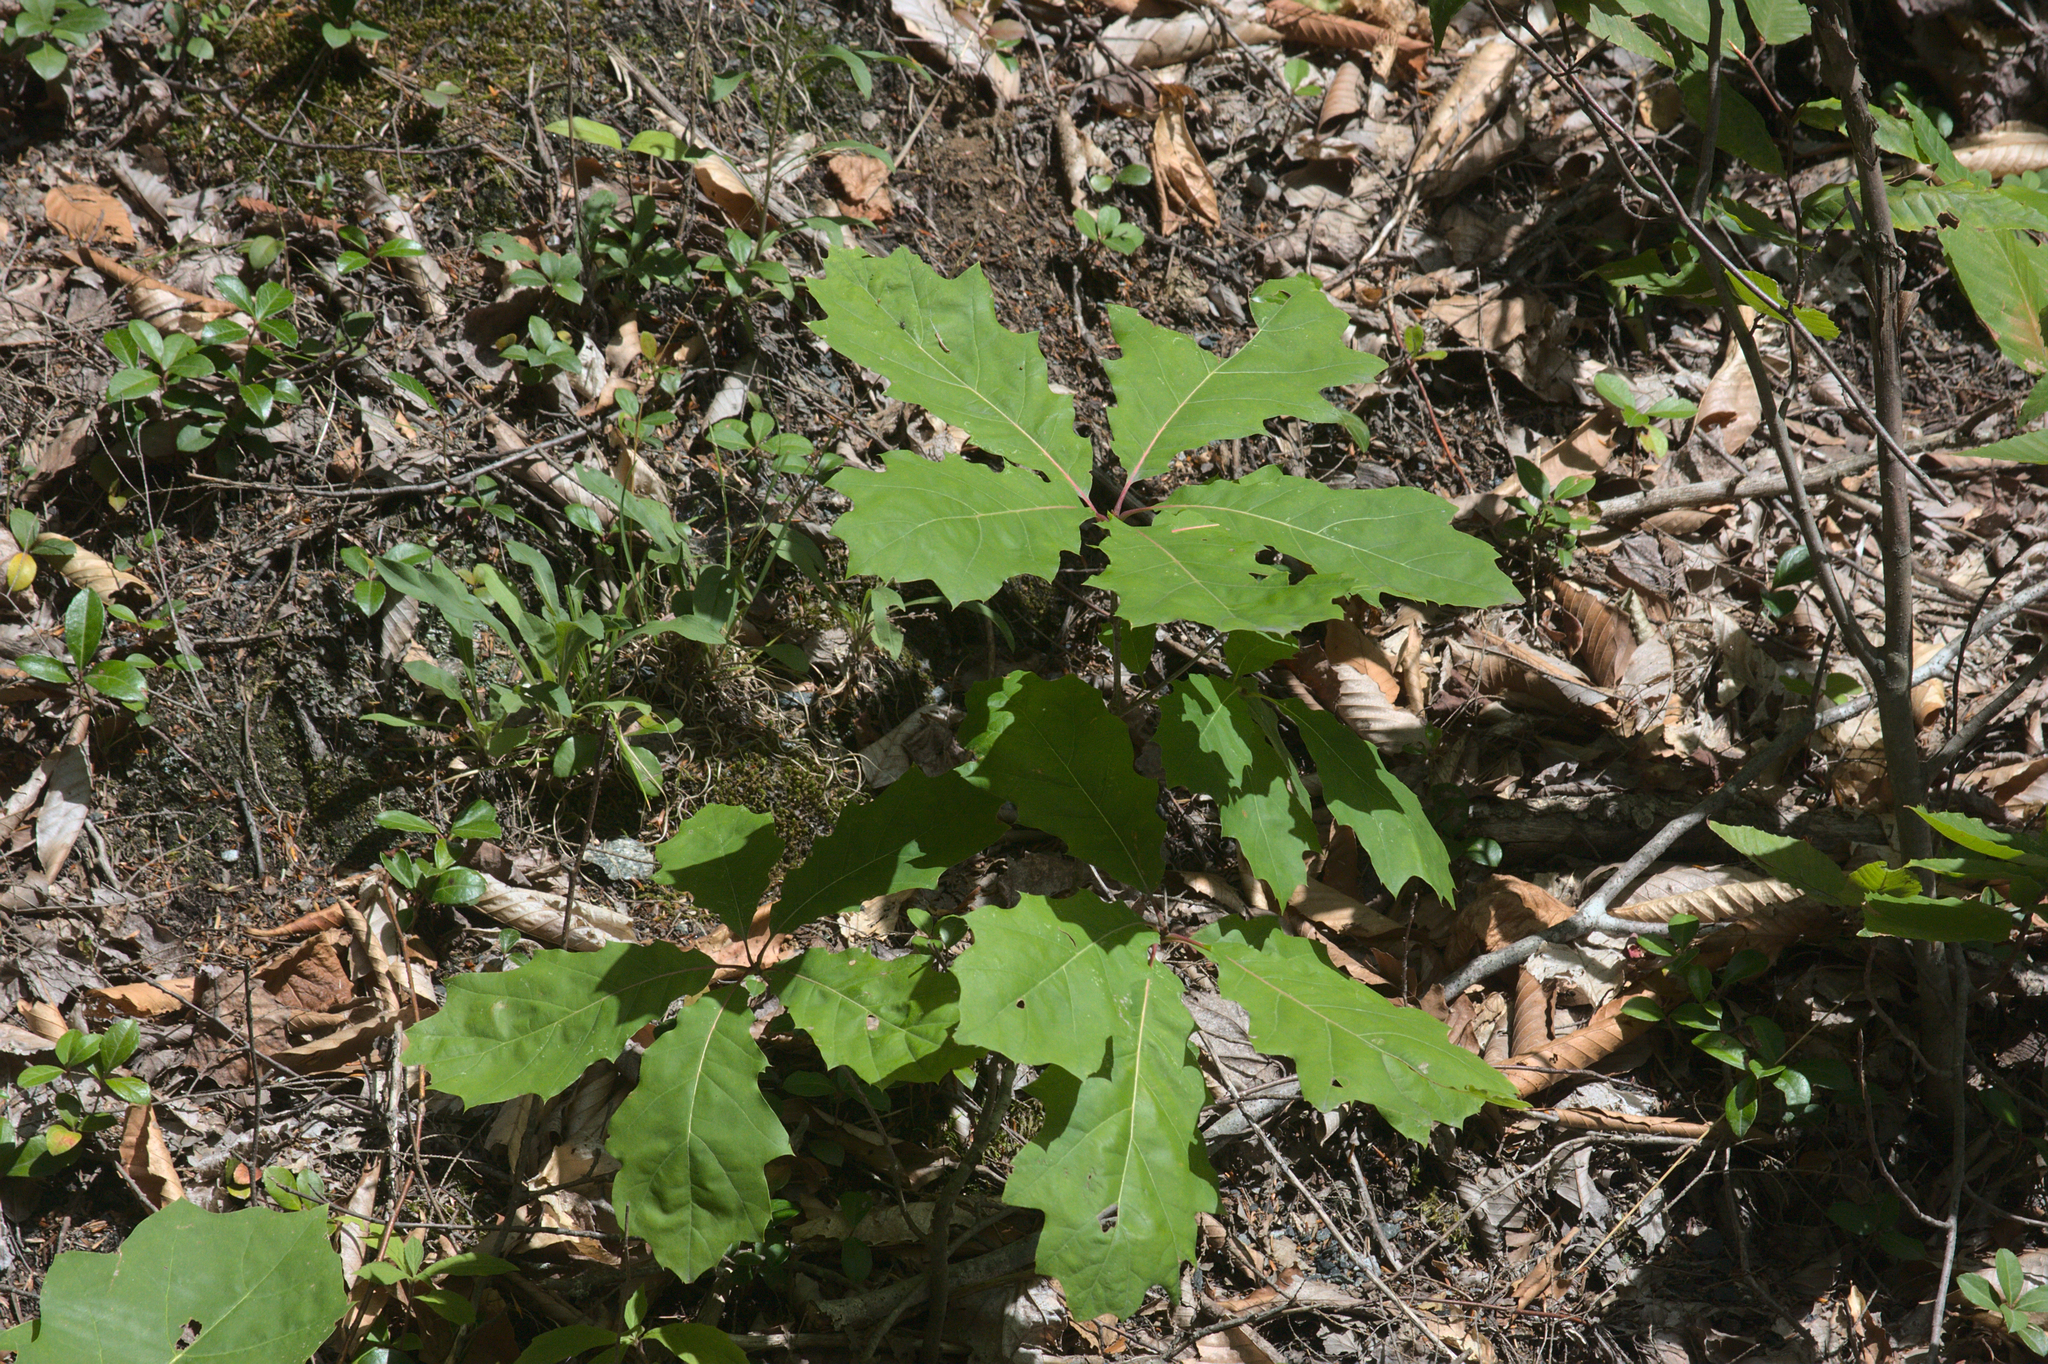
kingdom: Plantae
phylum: Tracheophyta
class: Magnoliopsida
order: Fagales
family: Fagaceae
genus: Quercus
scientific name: Quercus rubra
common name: Red oak
